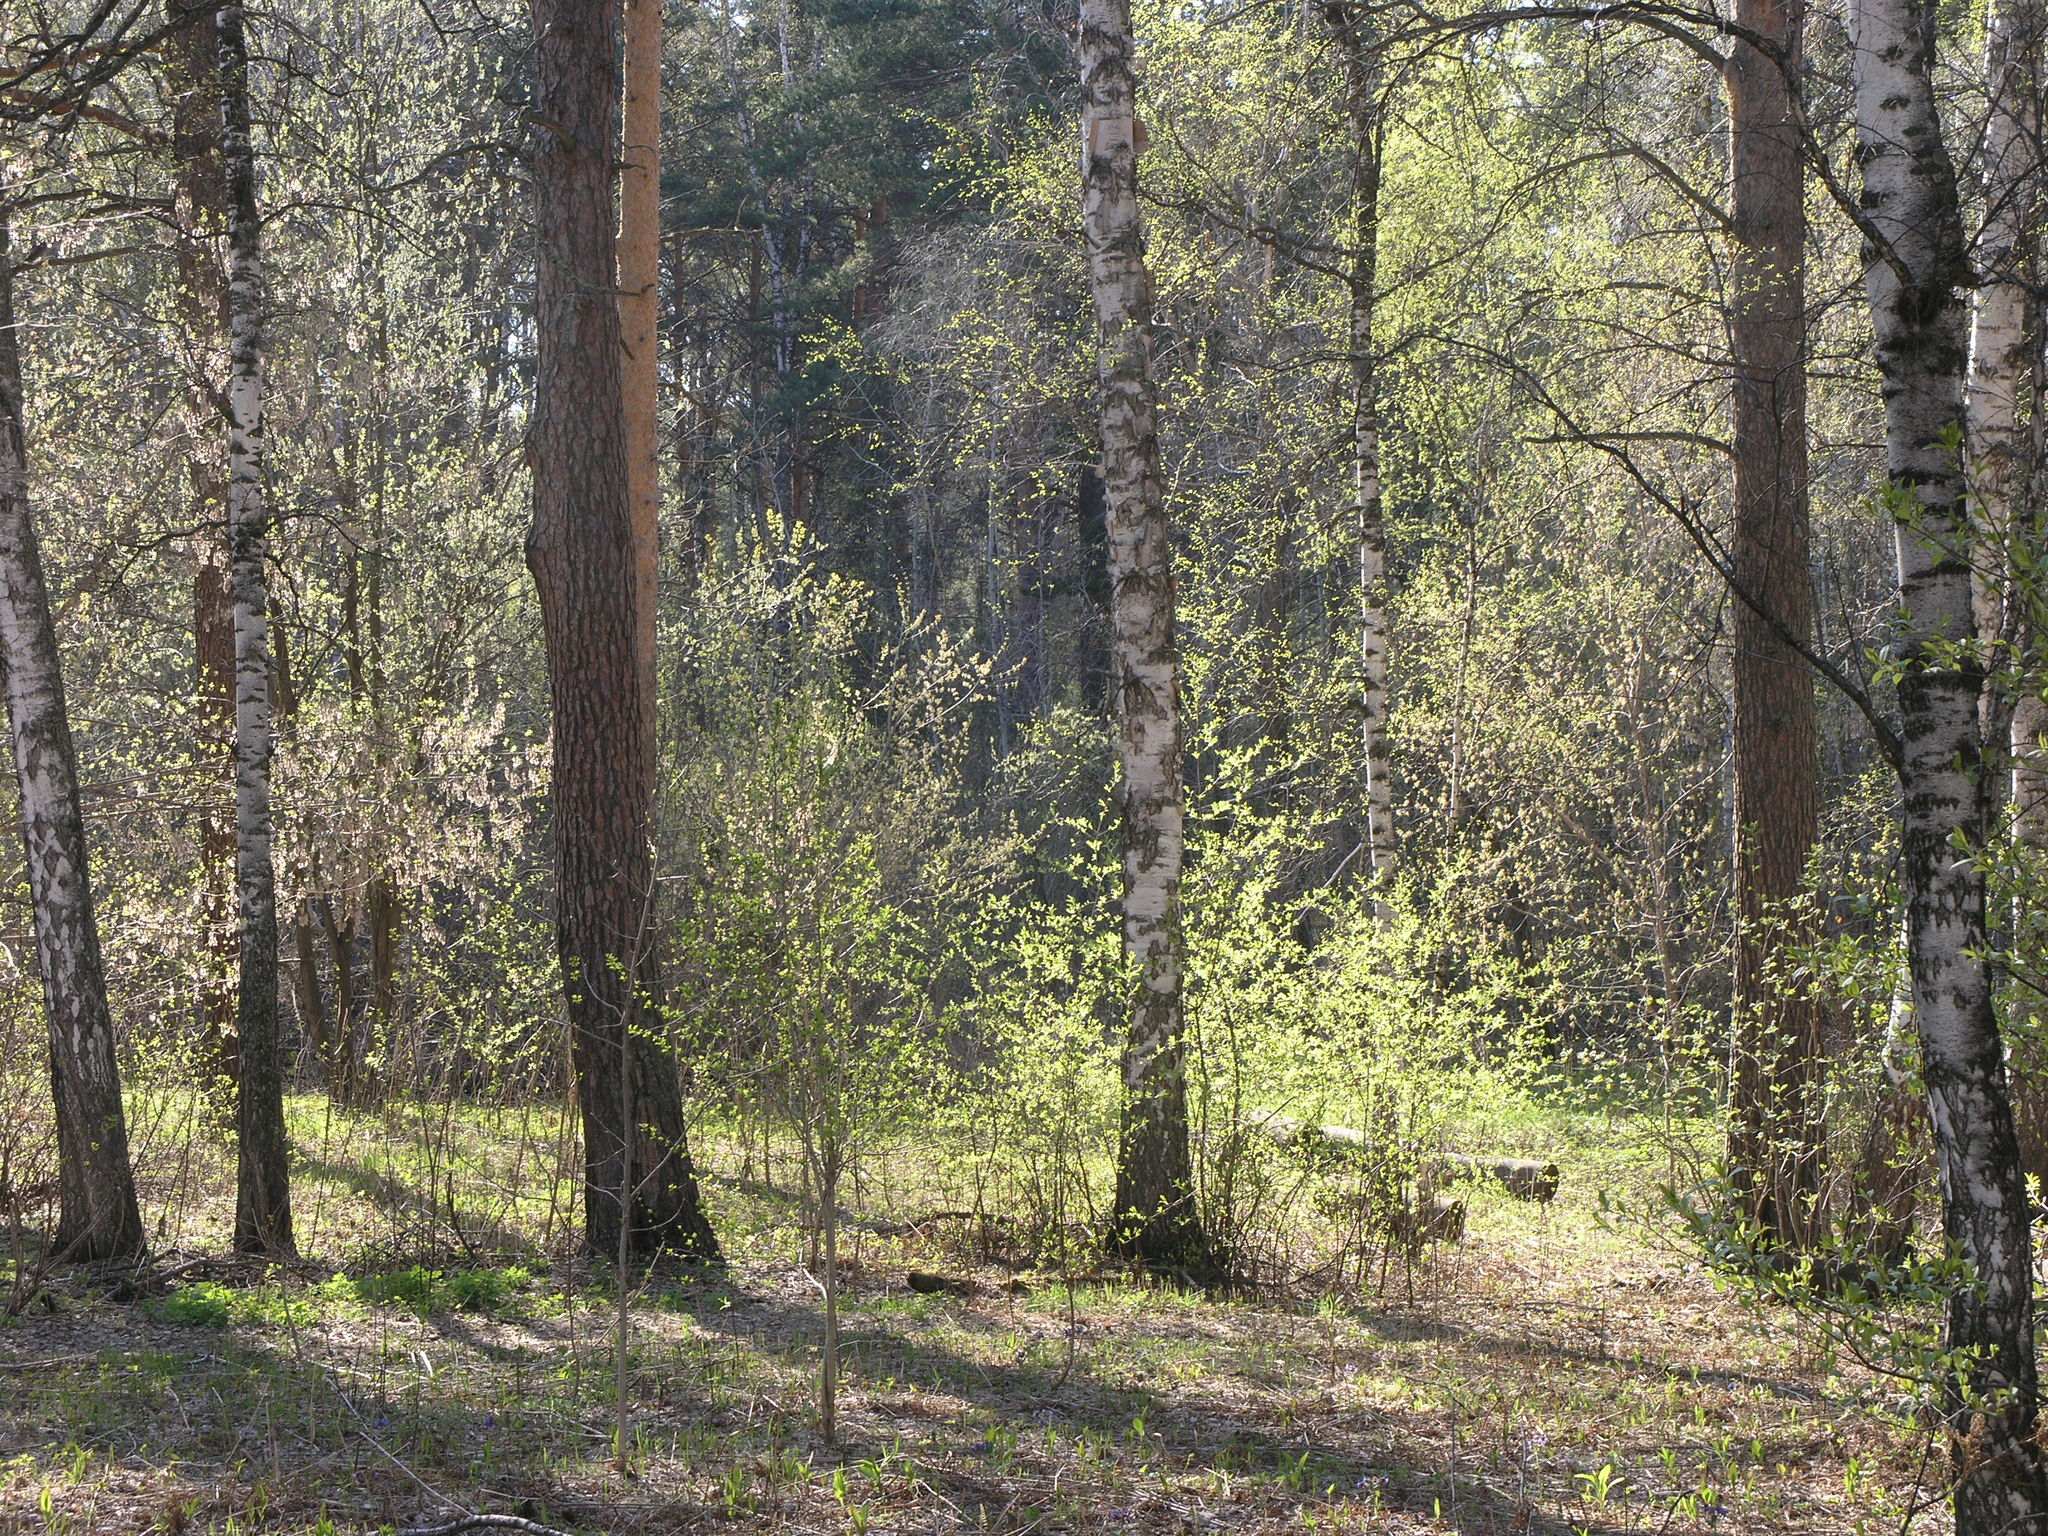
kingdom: Plantae
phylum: Tracheophyta
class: Pinopsida
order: Pinales
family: Pinaceae
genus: Pinus
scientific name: Pinus sylvestris
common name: Scots pine
